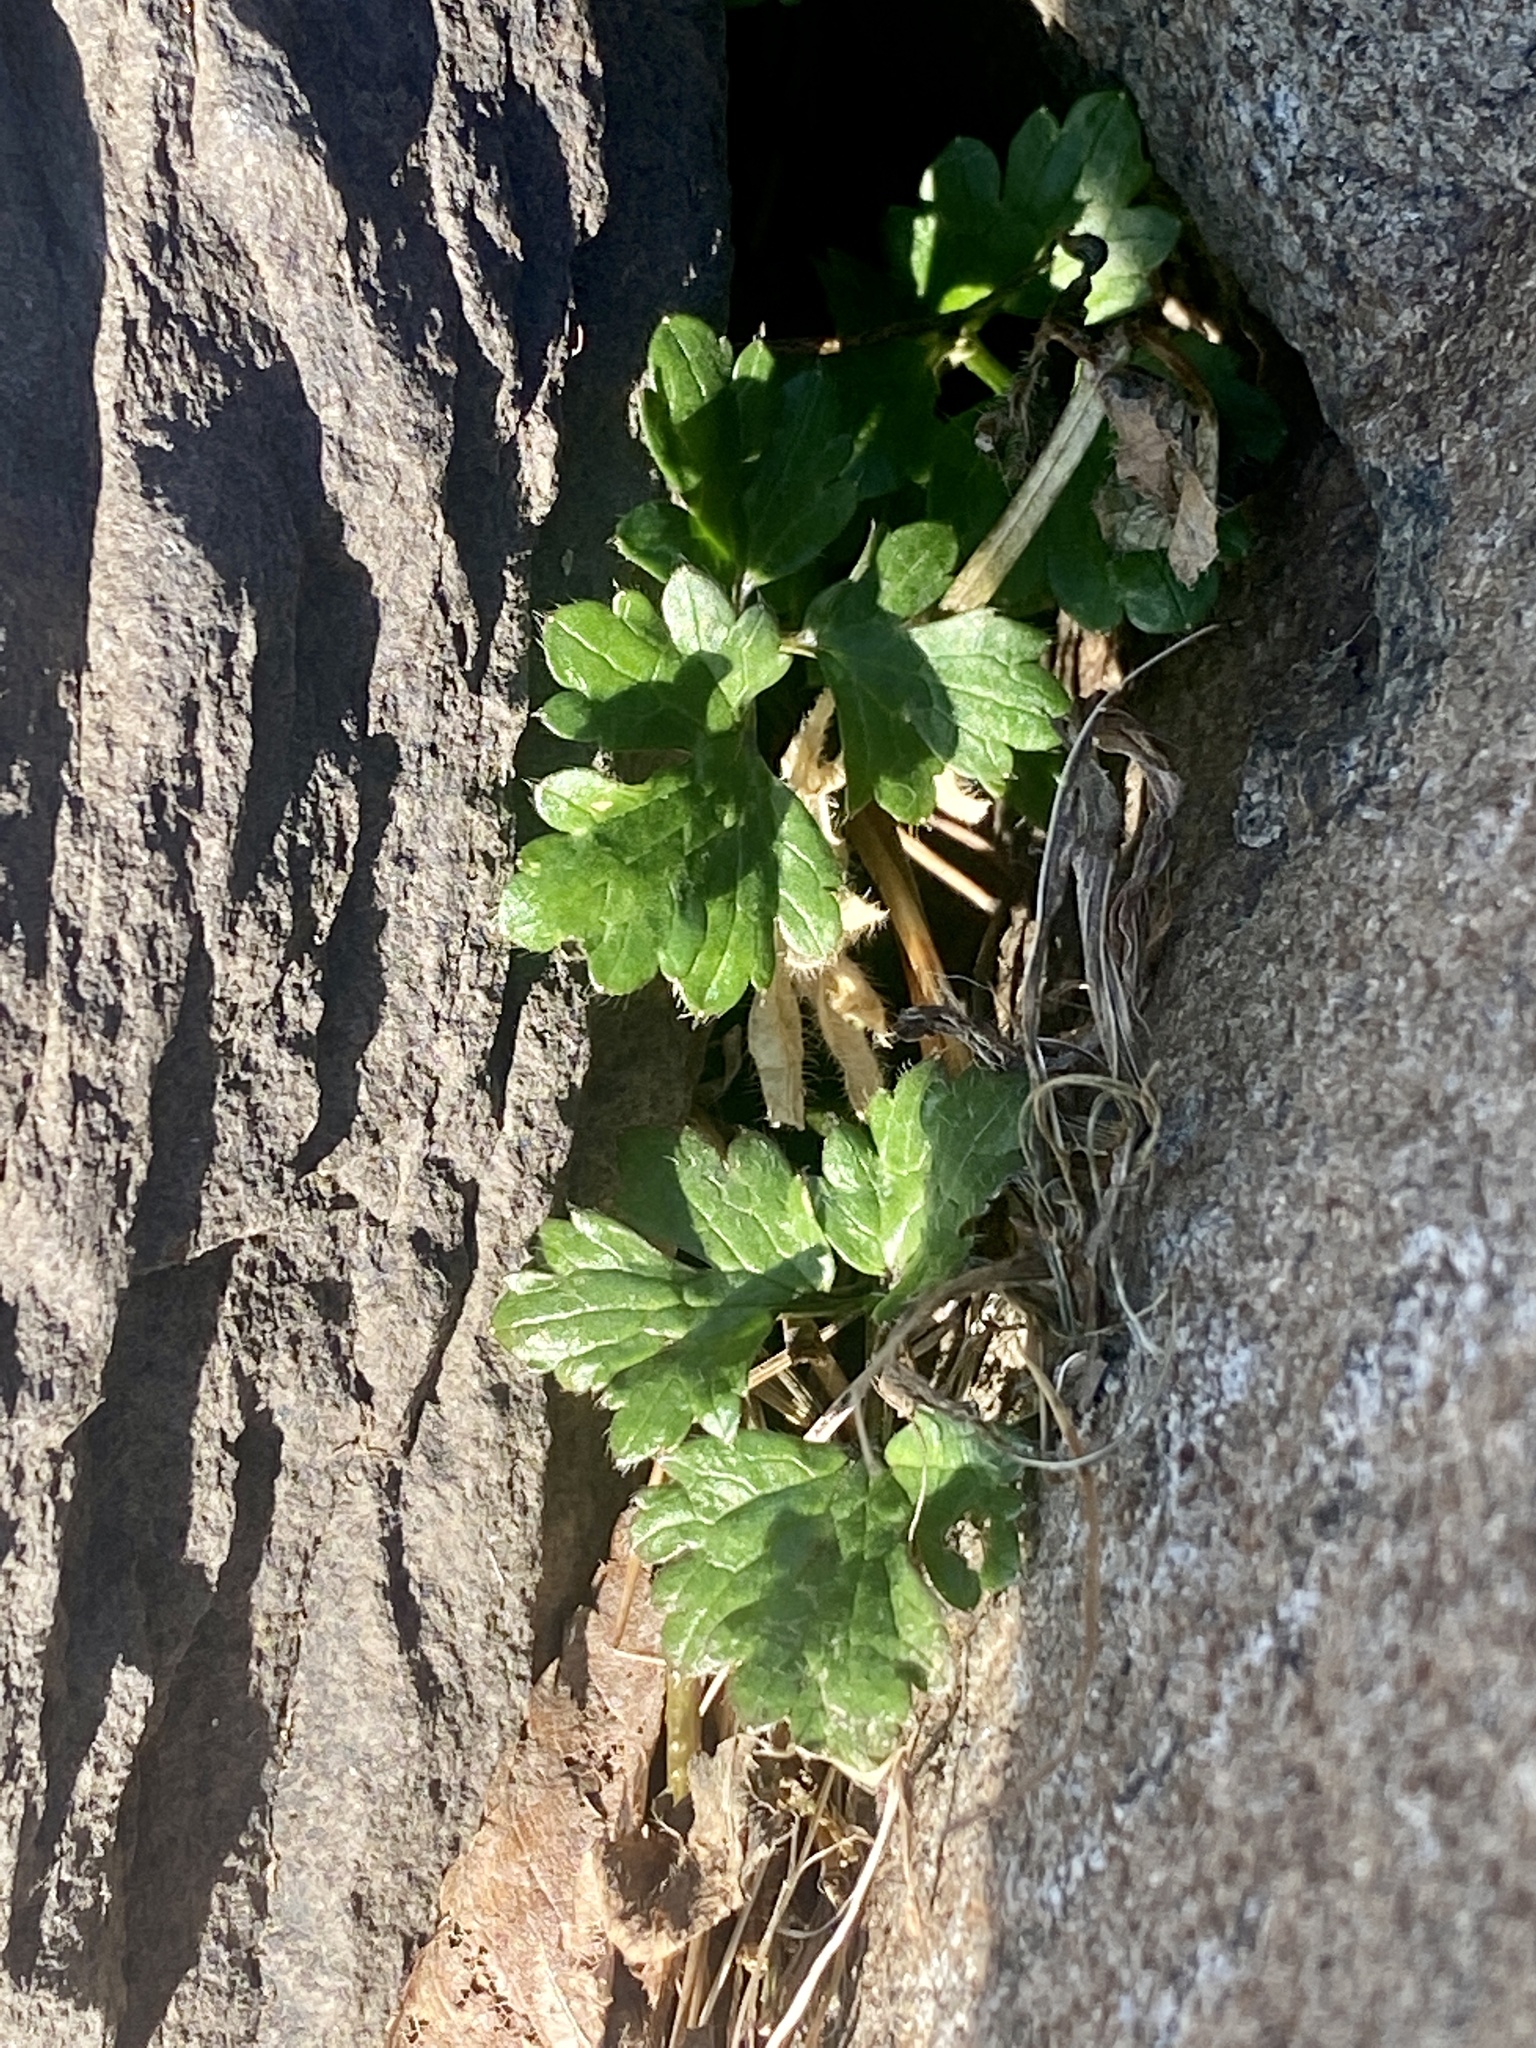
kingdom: Plantae
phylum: Tracheophyta
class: Magnoliopsida
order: Ranunculales
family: Ranunculaceae
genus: Ranunculus
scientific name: Ranunculus repens
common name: Creeping buttercup
